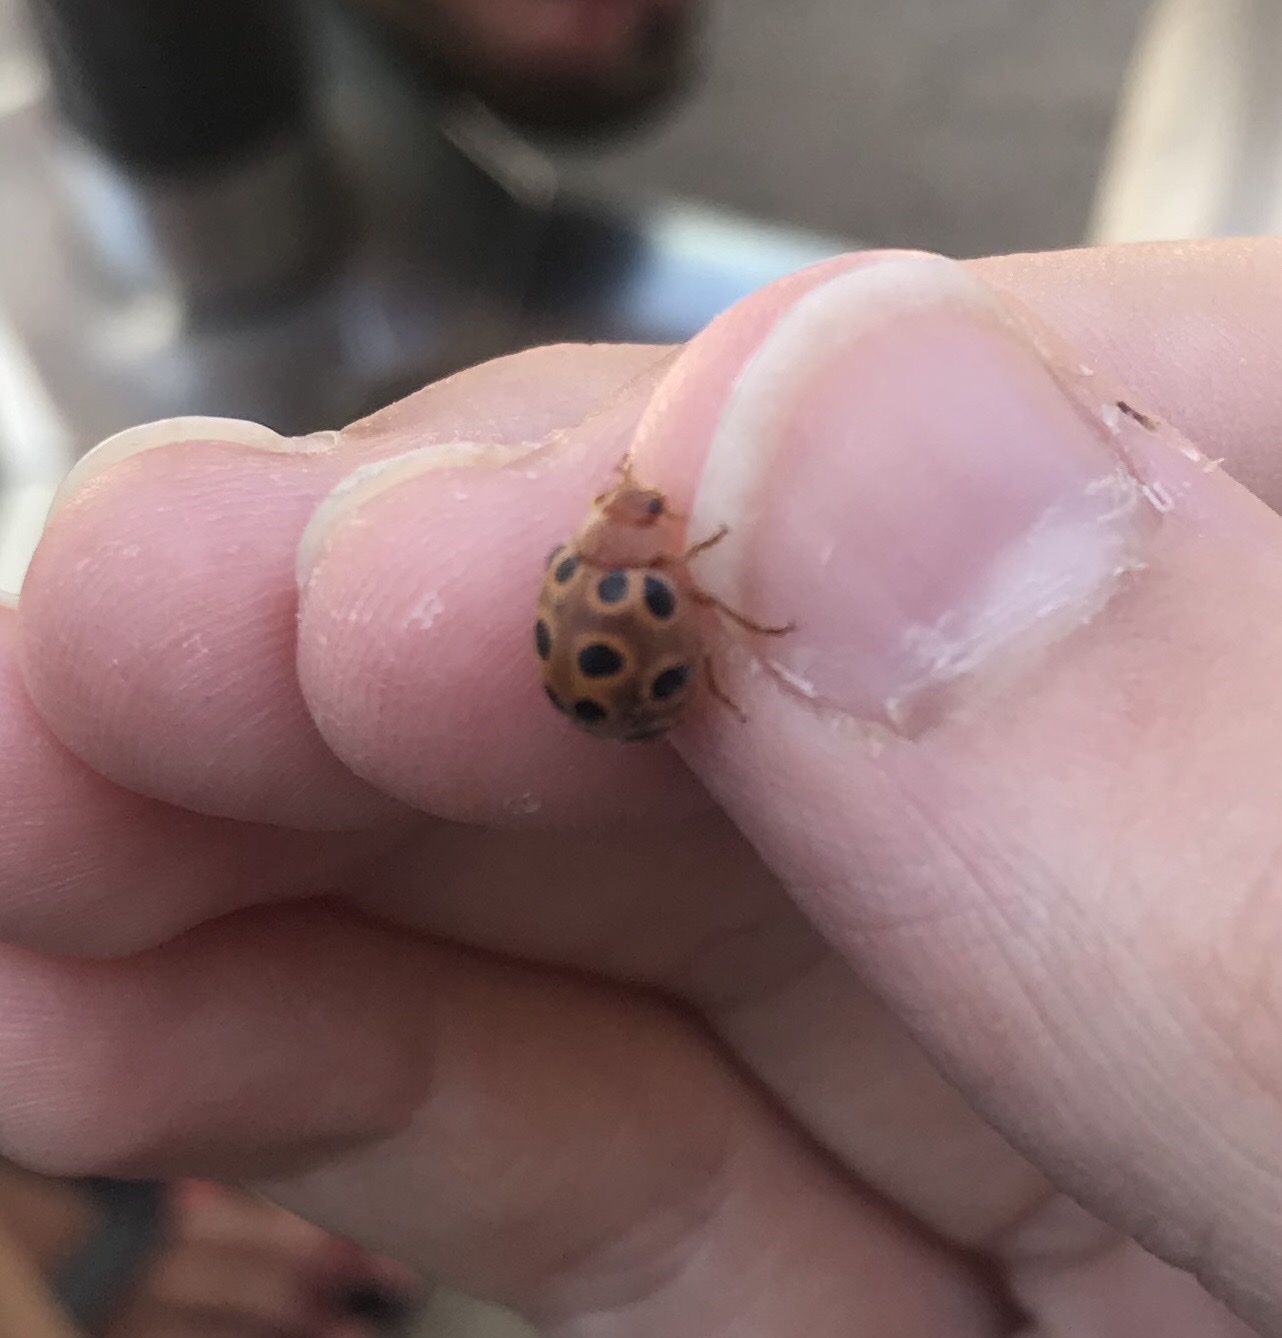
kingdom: Animalia
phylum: Arthropoda
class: Insecta
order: Coleoptera
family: Coccinellidae
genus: Chnootriba
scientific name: Chnootriba elaterii
